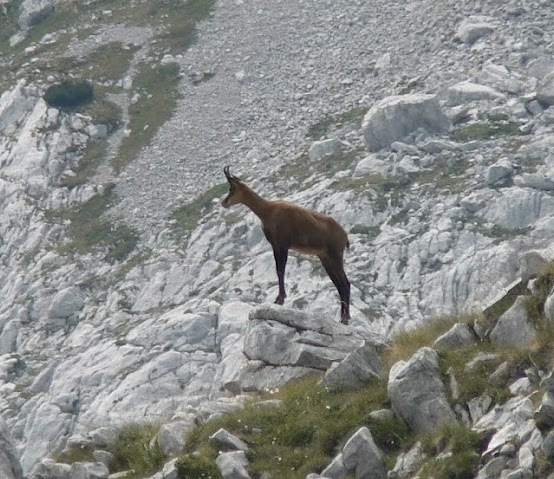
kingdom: Animalia
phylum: Chordata
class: Mammalia
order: Artiodactyla
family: Bovidae
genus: Rupicapra
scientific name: Rupicapra rupicapra
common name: Chamois
